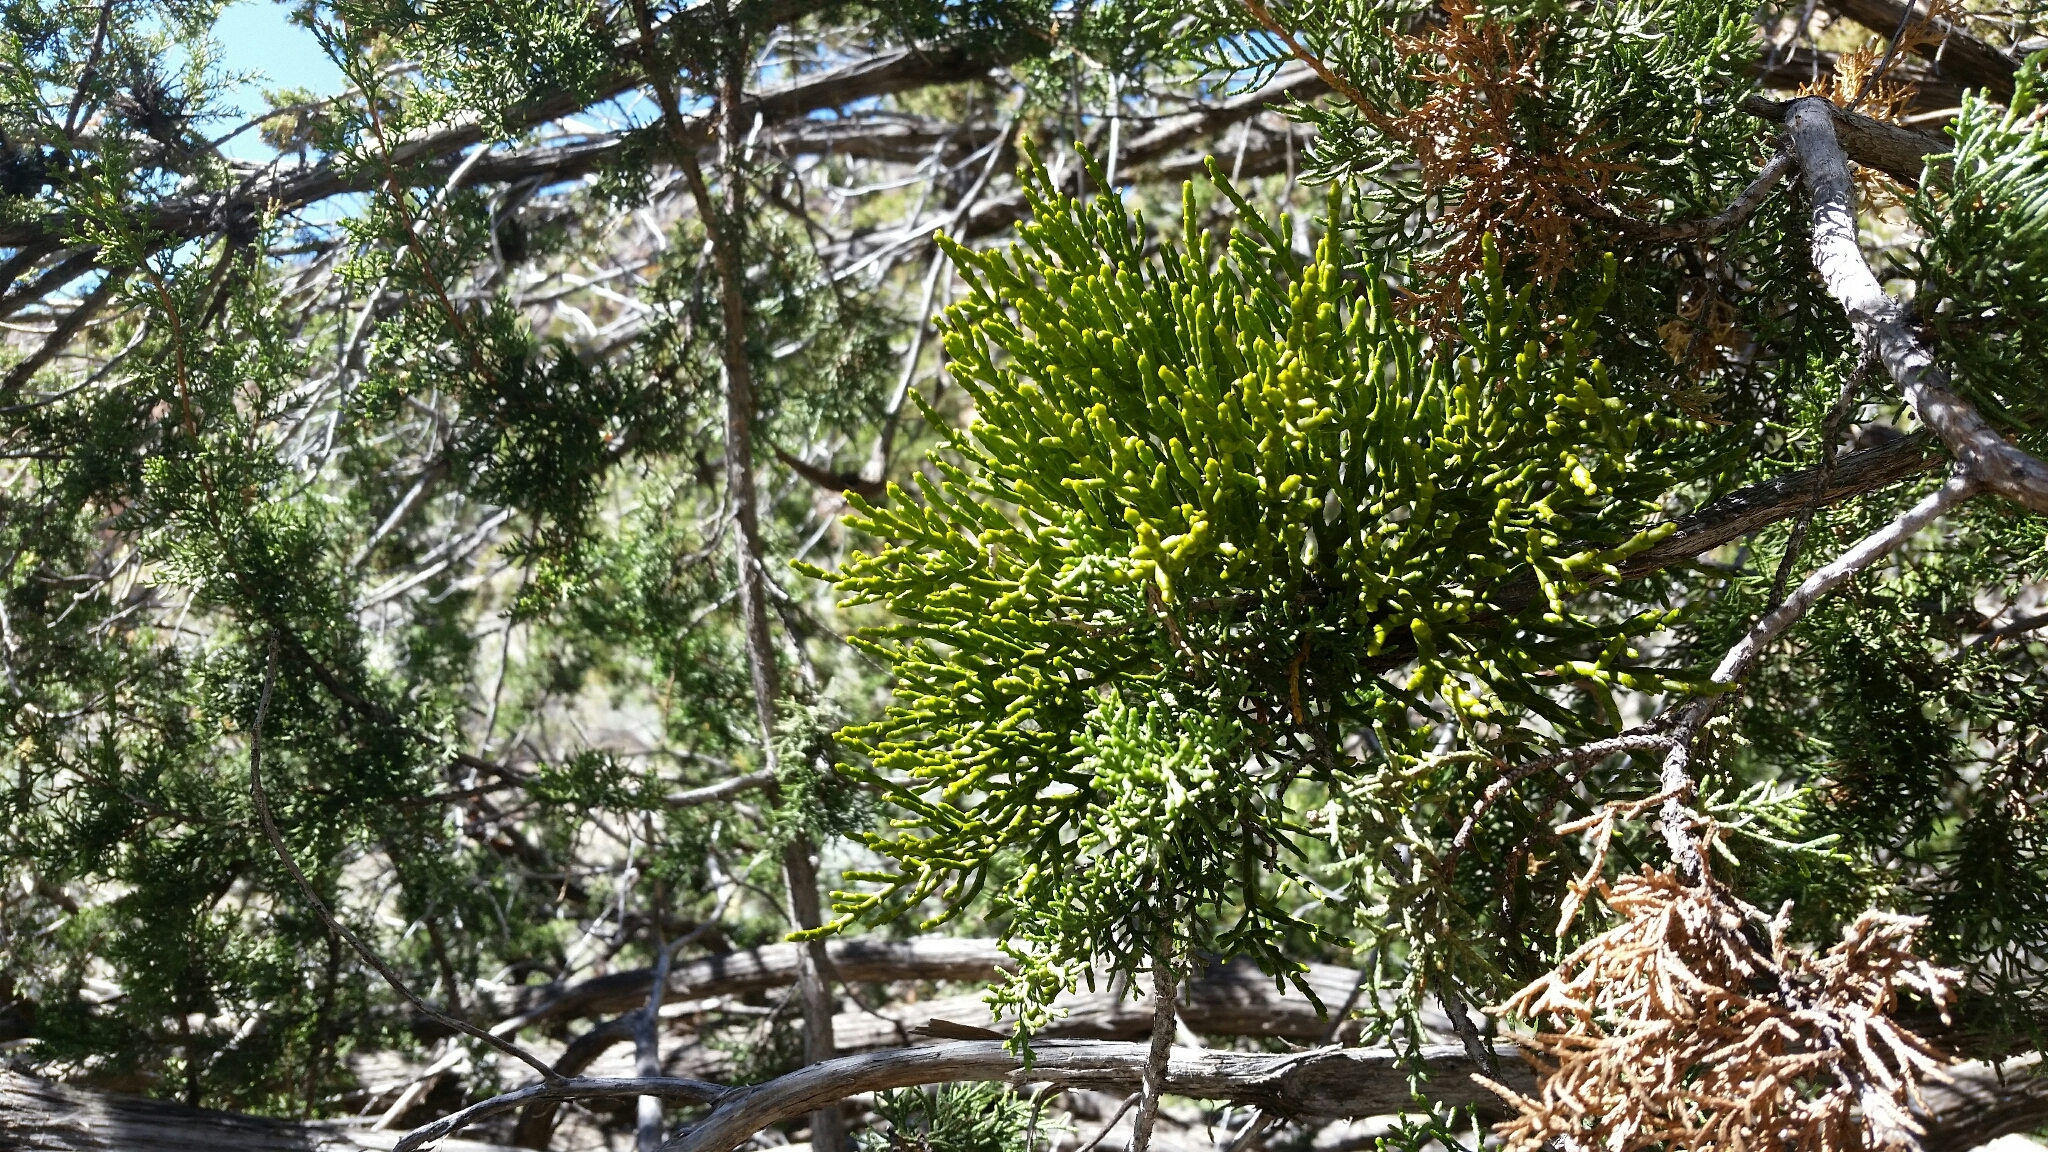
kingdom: Plantae
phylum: Tracheophyta
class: Magnoliopsida
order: Santalales
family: Viscaceae
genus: Phoradendron
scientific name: Phoradendron juniperinum
